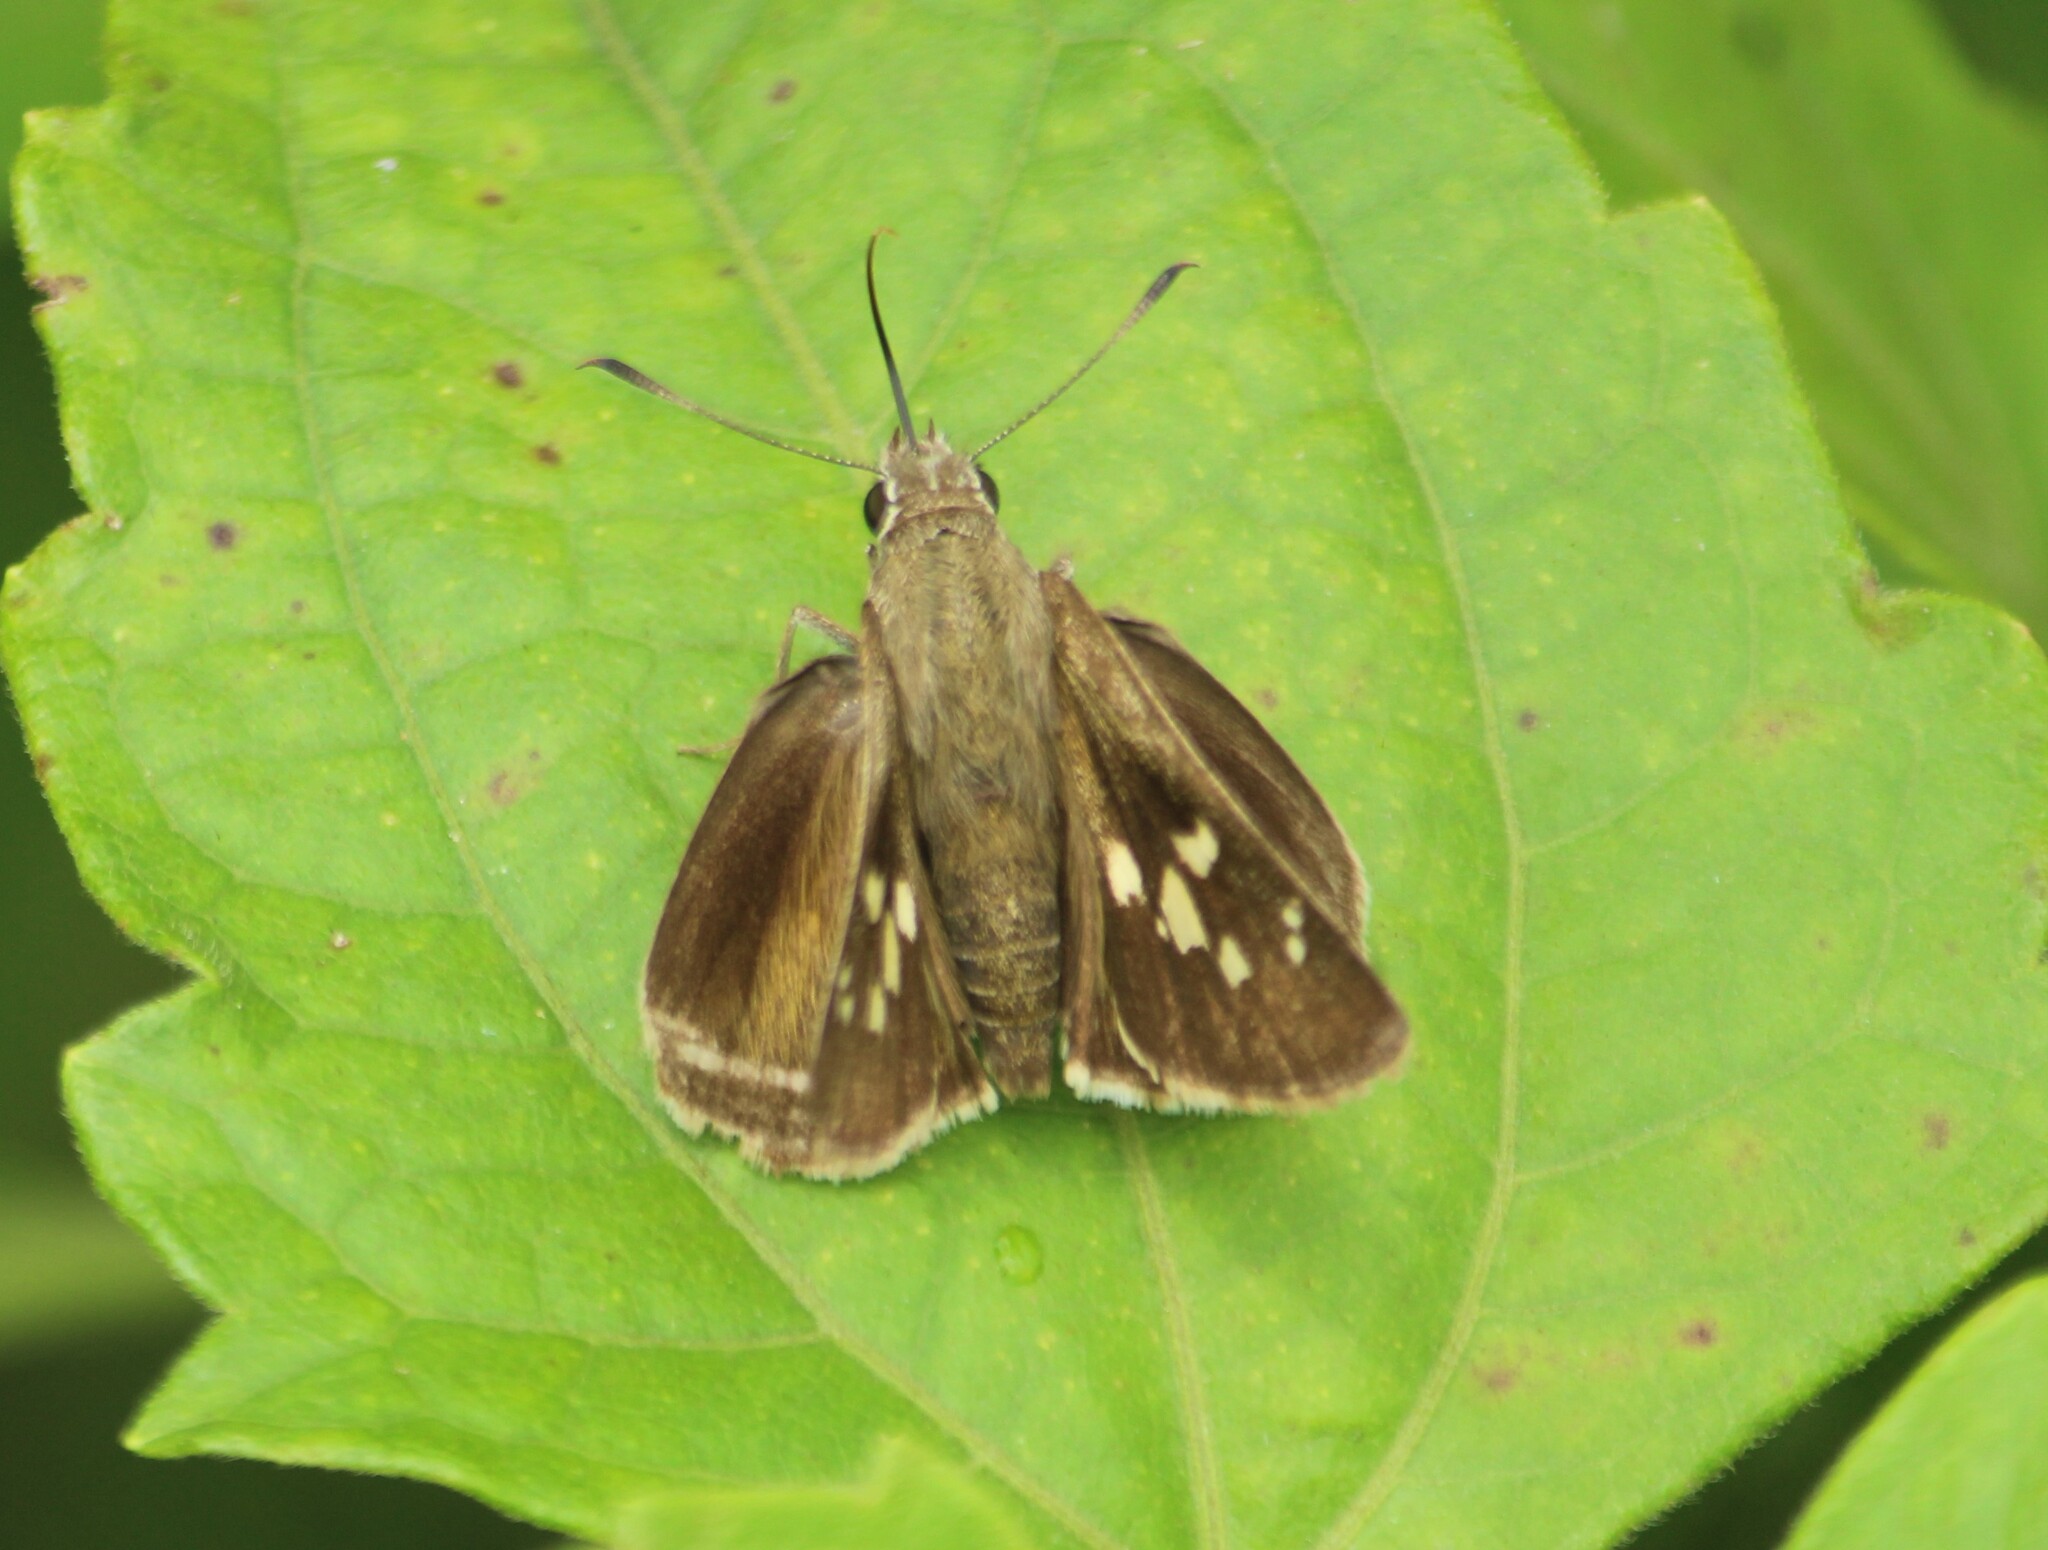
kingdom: Animalia
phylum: Arthropoda
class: Insecta
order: Lepidoptera
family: Hesperiidae
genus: Suastus
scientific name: Suastus gremius
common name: Indian palm bob
